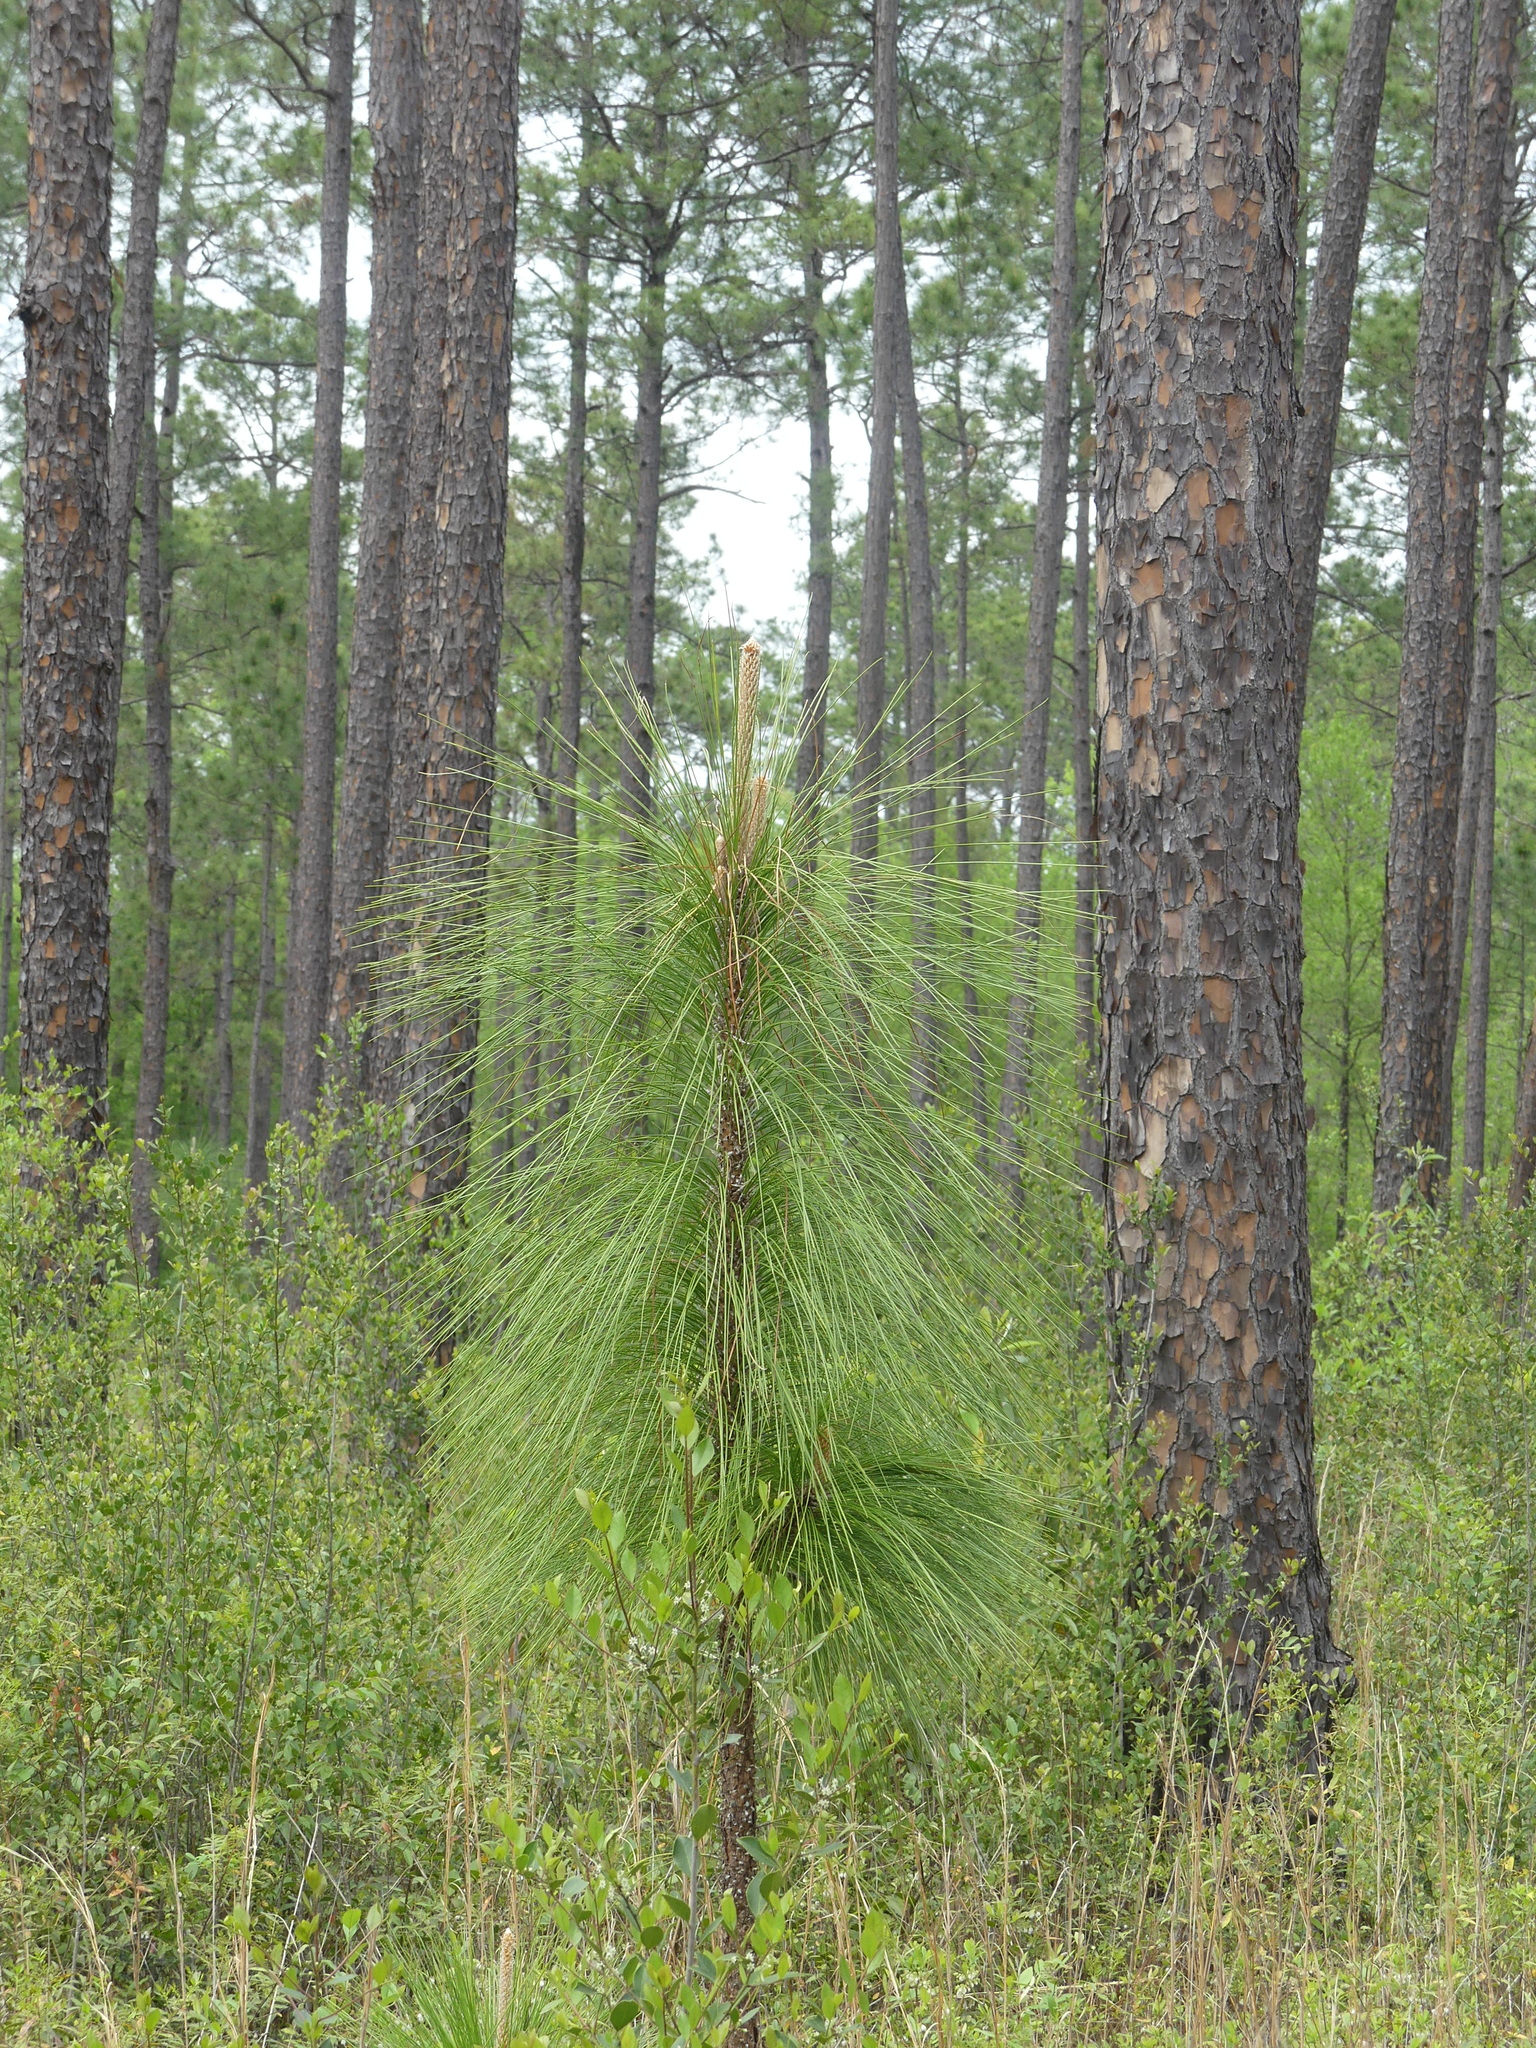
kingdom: Plantae
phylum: Tracheophyta
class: Pinopsida
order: Pinales
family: Pinaceae
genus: Pinus
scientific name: Pinus palustris
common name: Longleaf pine
